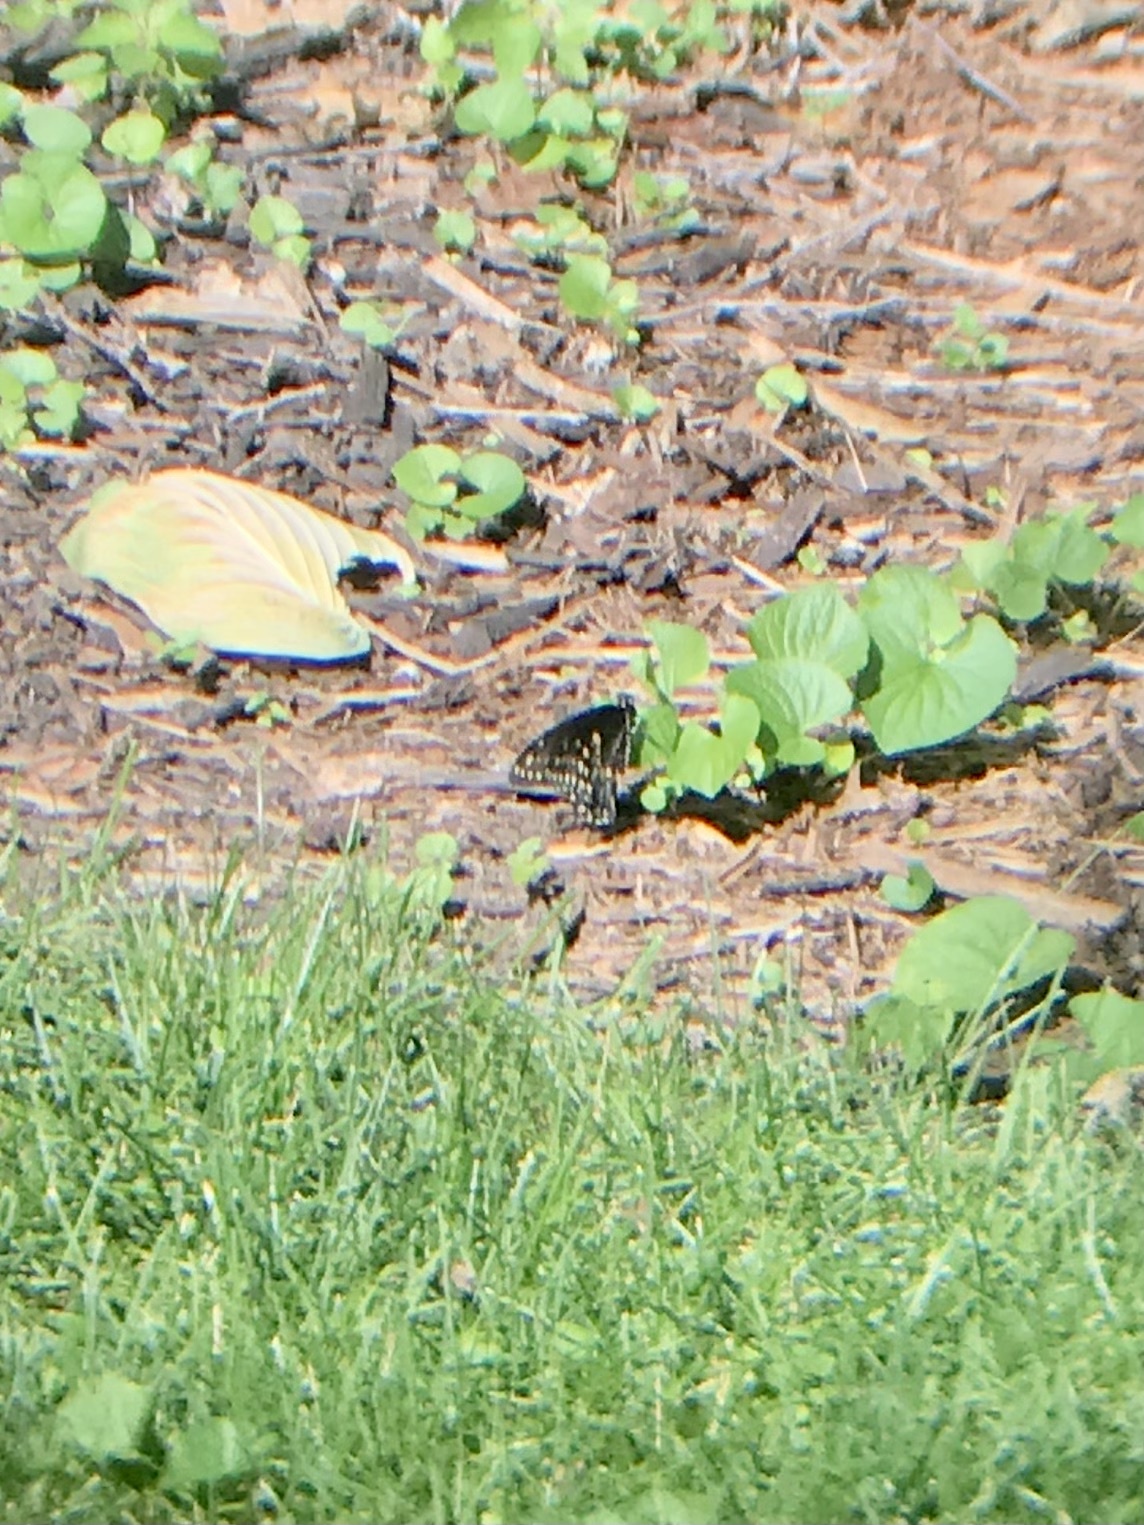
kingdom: Animalia
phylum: Arthropoda
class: Insecta
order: Lepidoptera
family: Papilionidae
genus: Papilio
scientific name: Papilio polyxenes
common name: Black swallowtail
